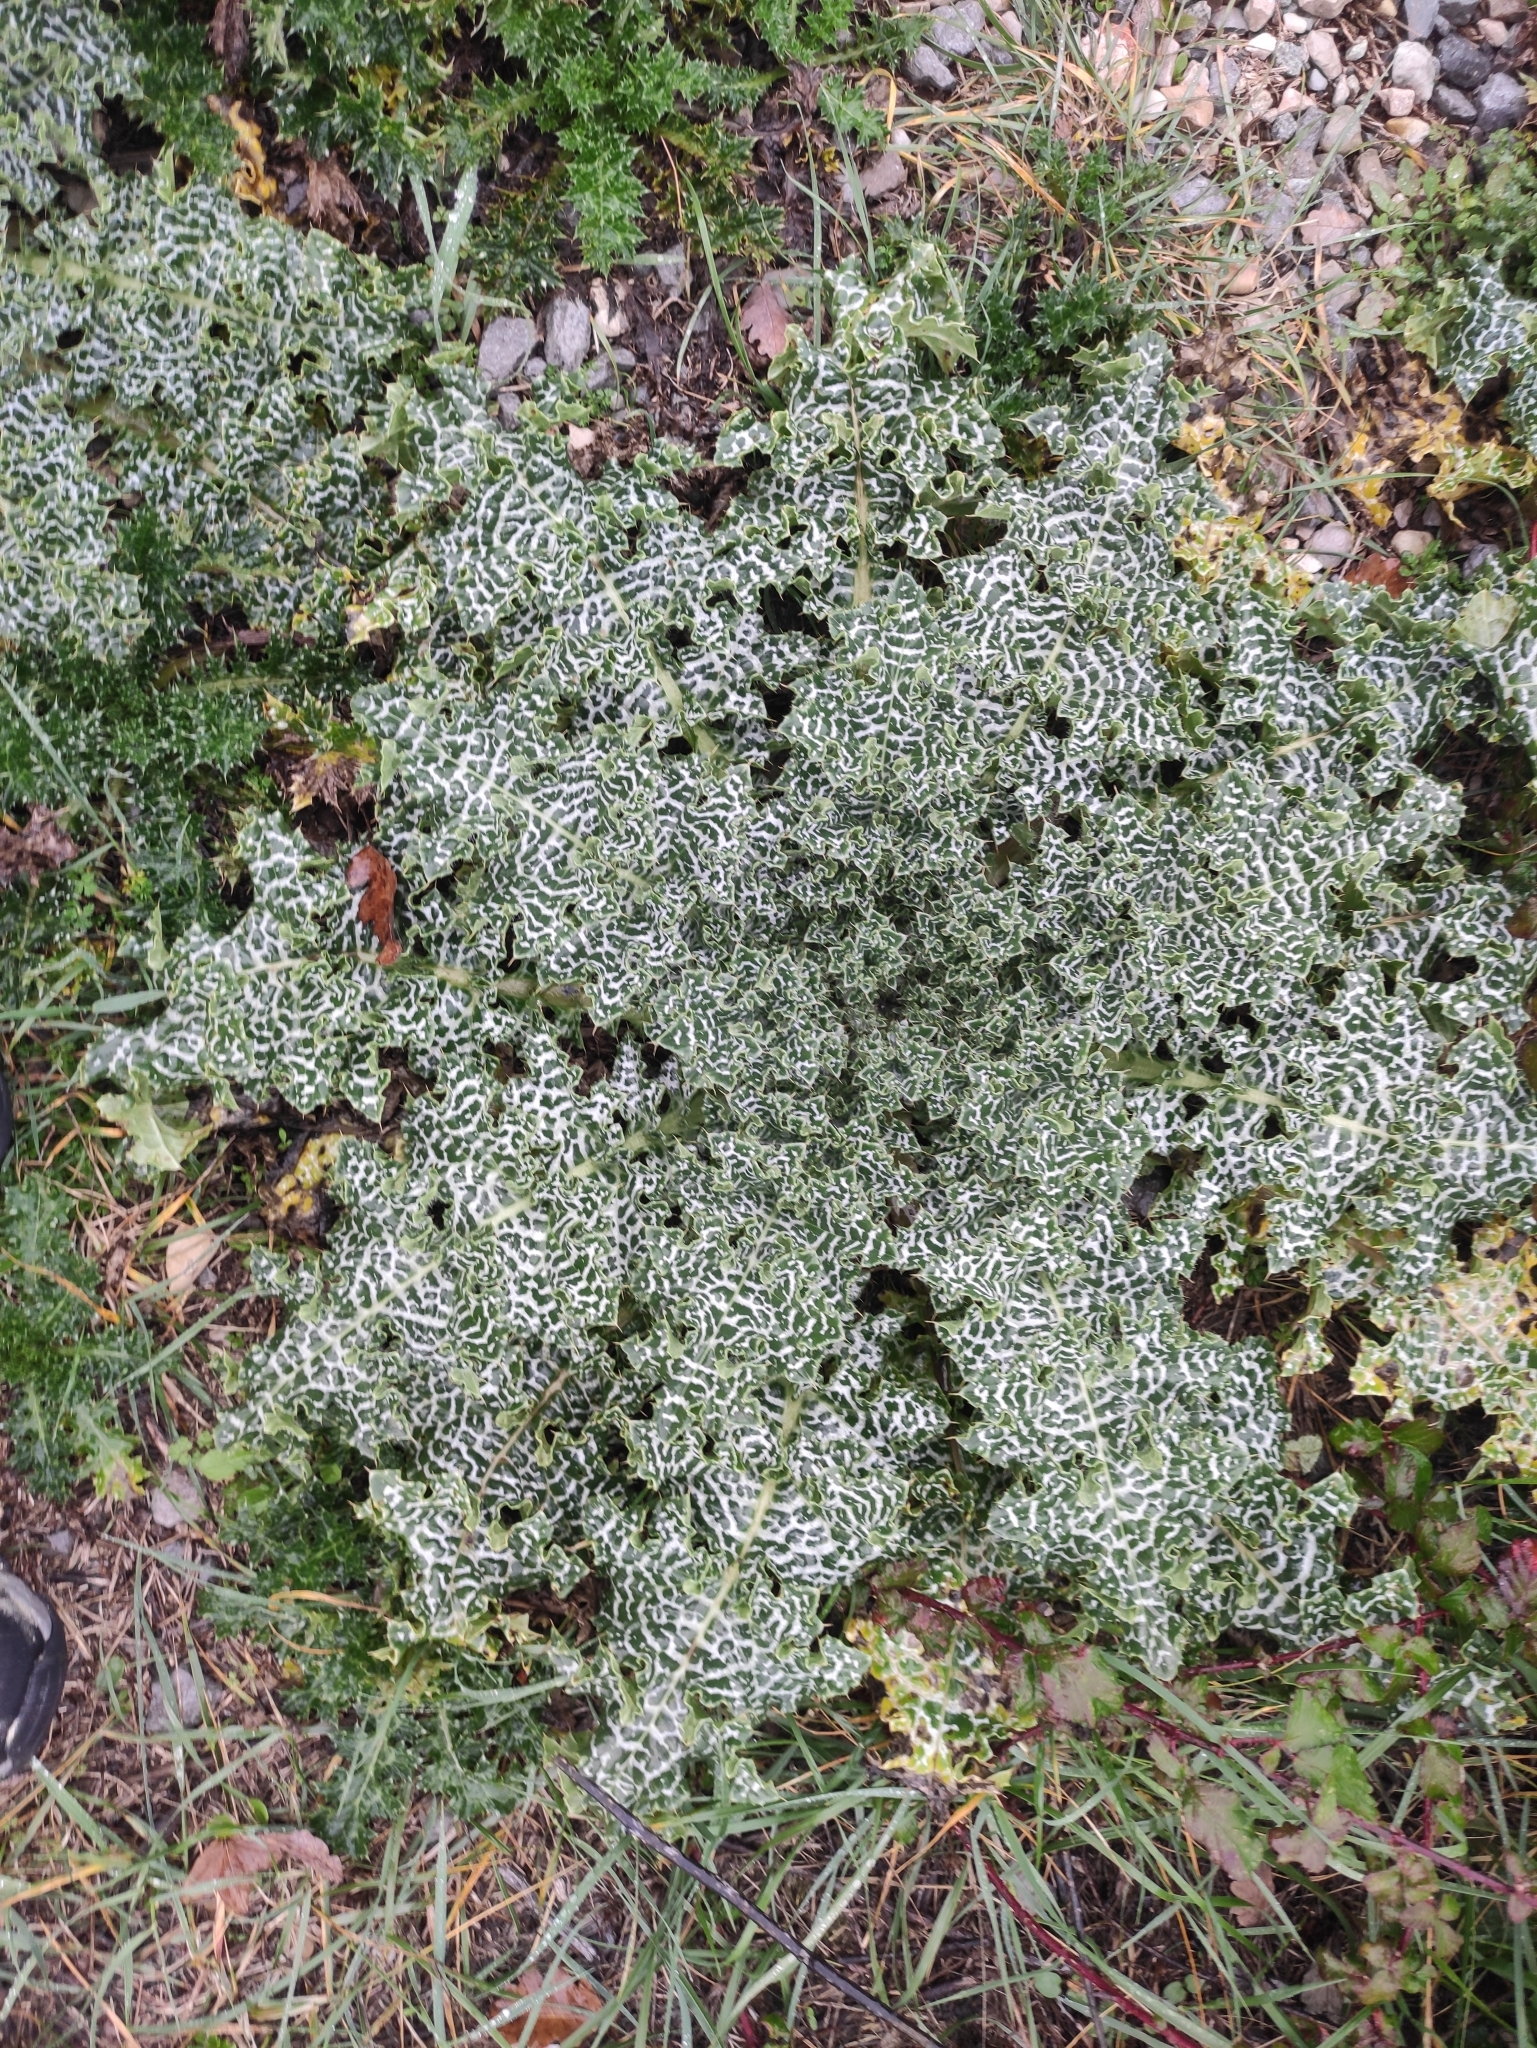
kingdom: Plantae
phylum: Tracheophyta
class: Magnoliopsida
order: Asterales
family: Asteraceae
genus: Silybum
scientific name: Silybum marianum
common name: Milk thistle
